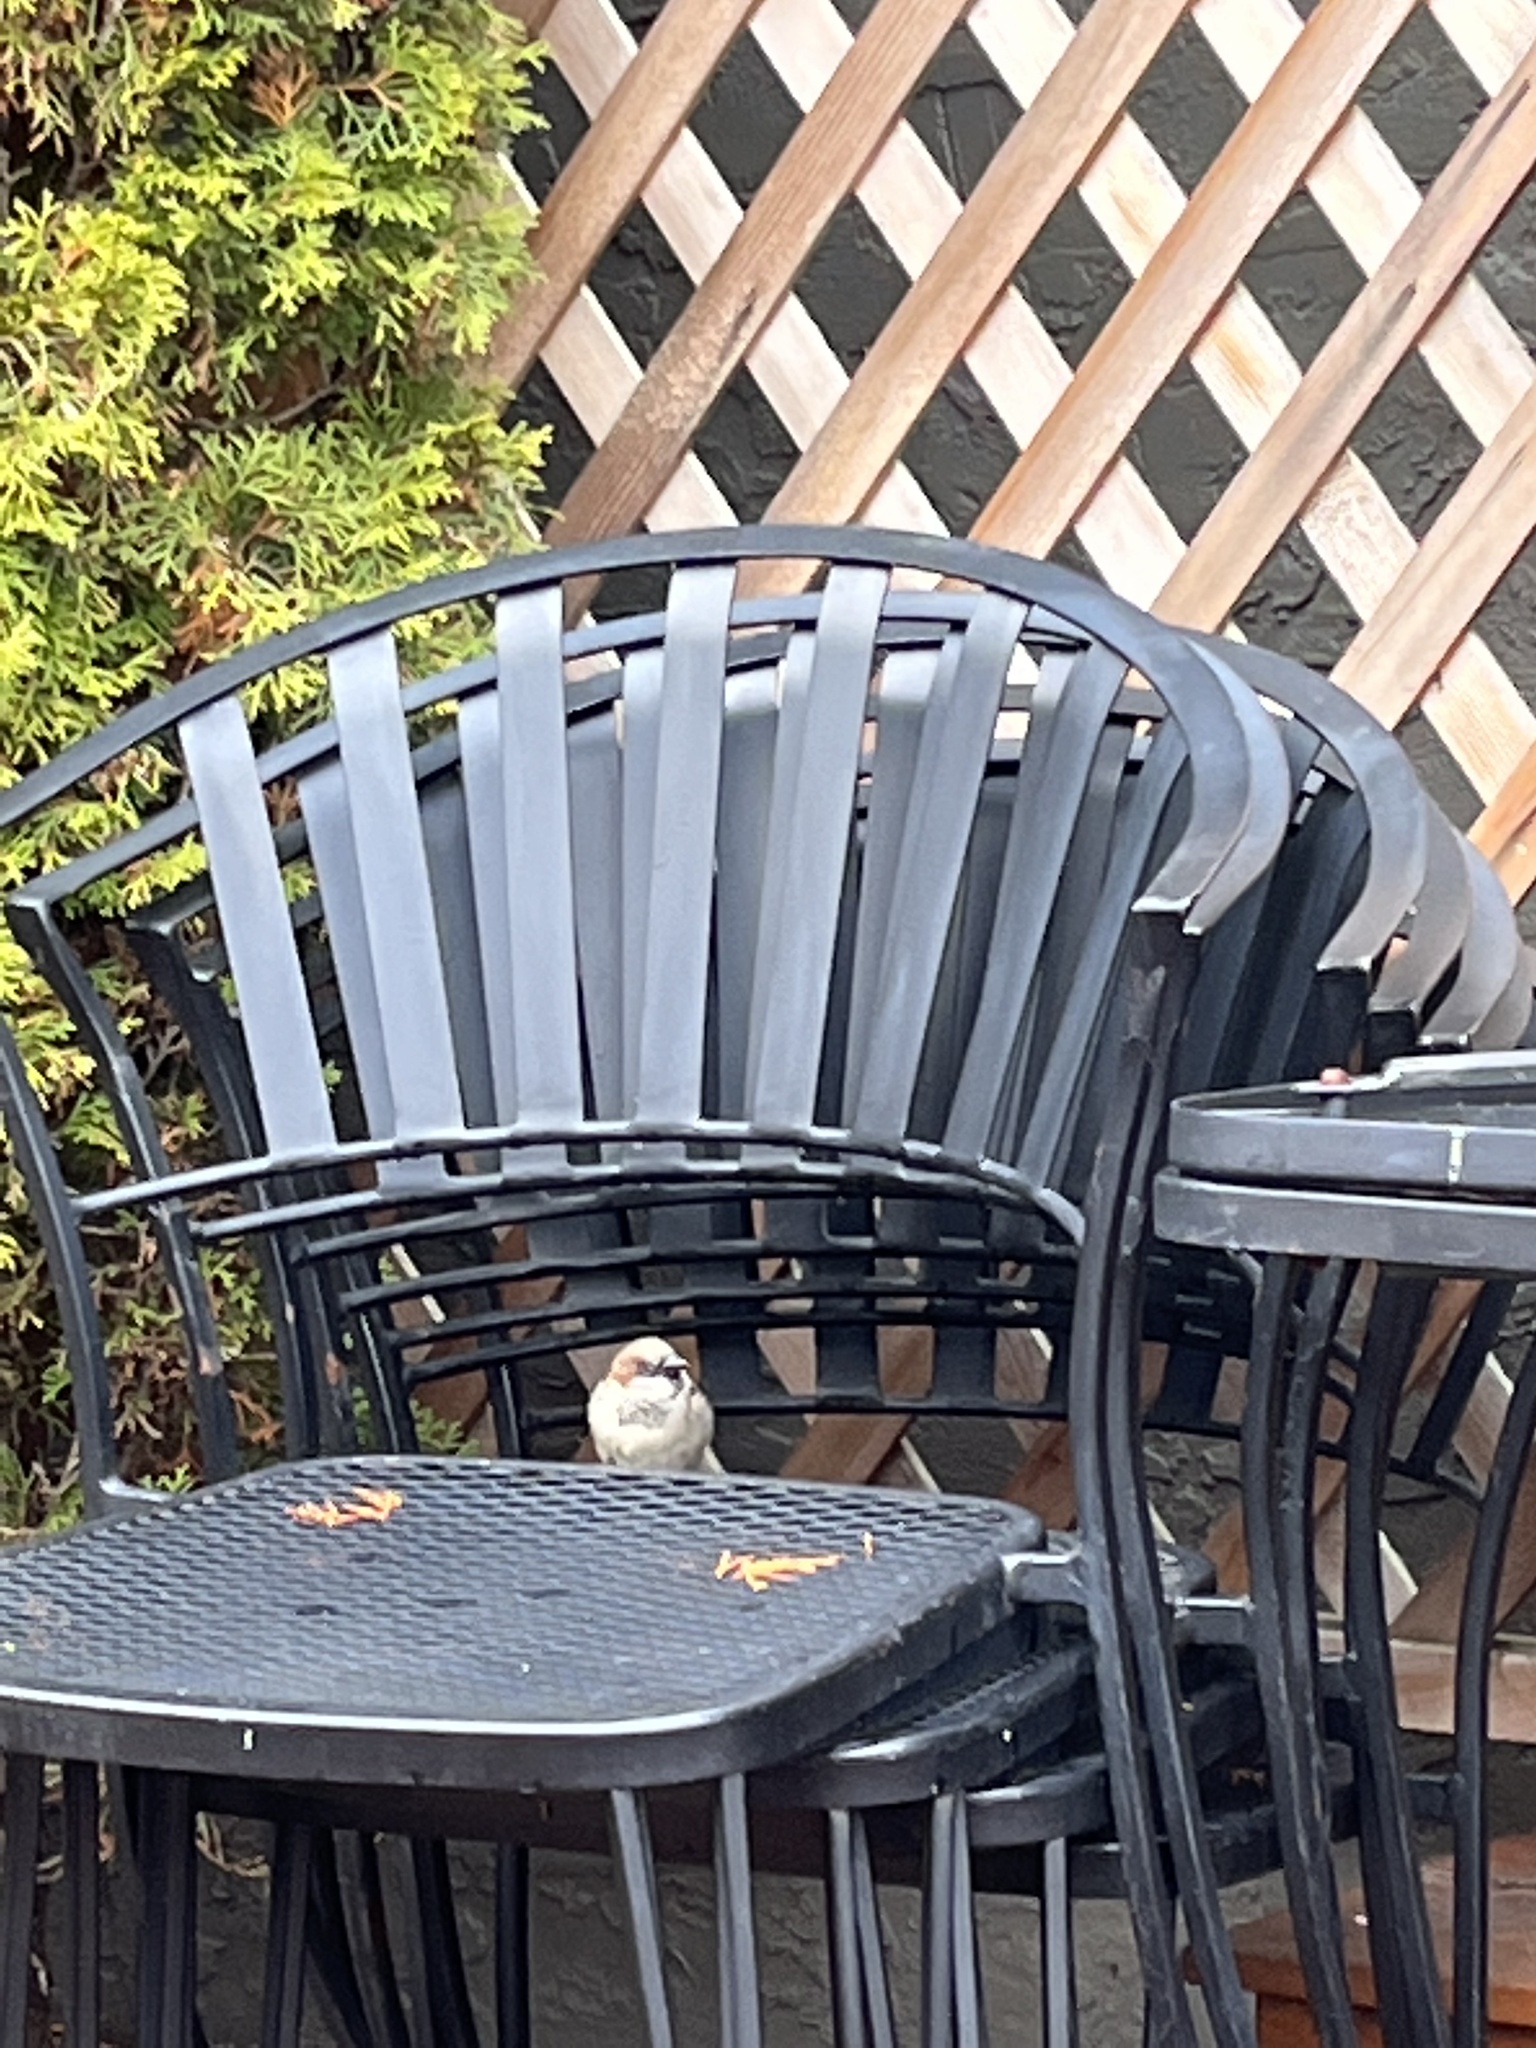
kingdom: Animalia
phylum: Chordata
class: Aves
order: Passeriformes
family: Passeridae
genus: Passer
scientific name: Passer domesticus
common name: House sparrow
